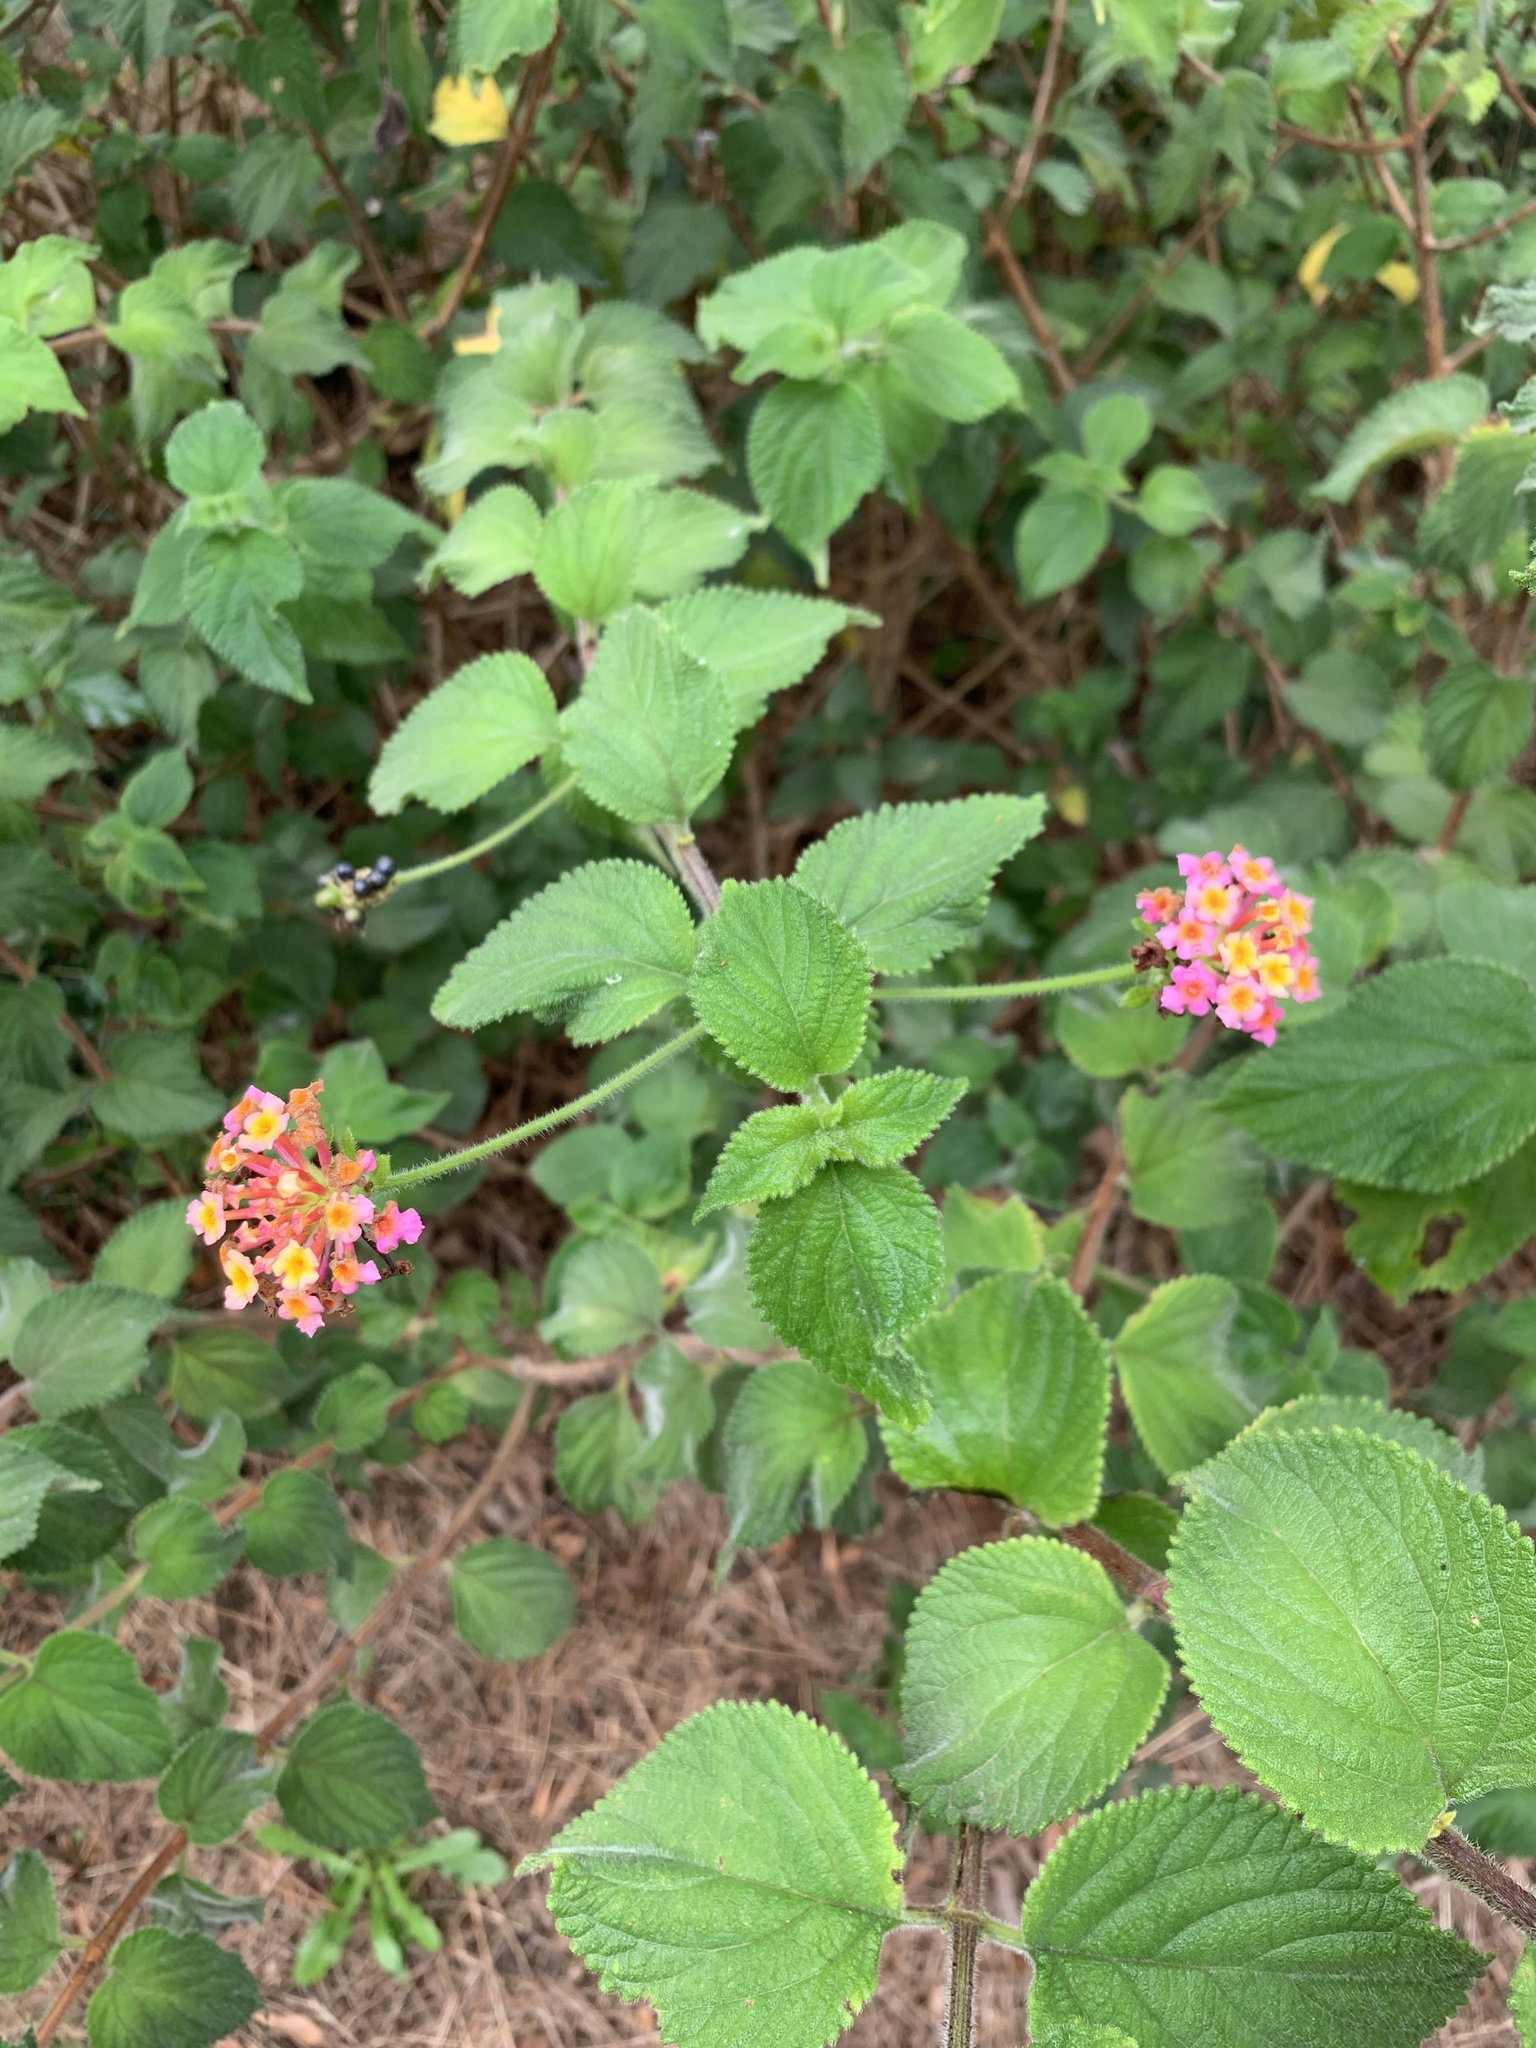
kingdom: Plantae
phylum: Tracheophyta
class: Magnoliopsida
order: Lamiales
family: Verbenaceae
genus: Lantana
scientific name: Lantana camara
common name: Lantana
